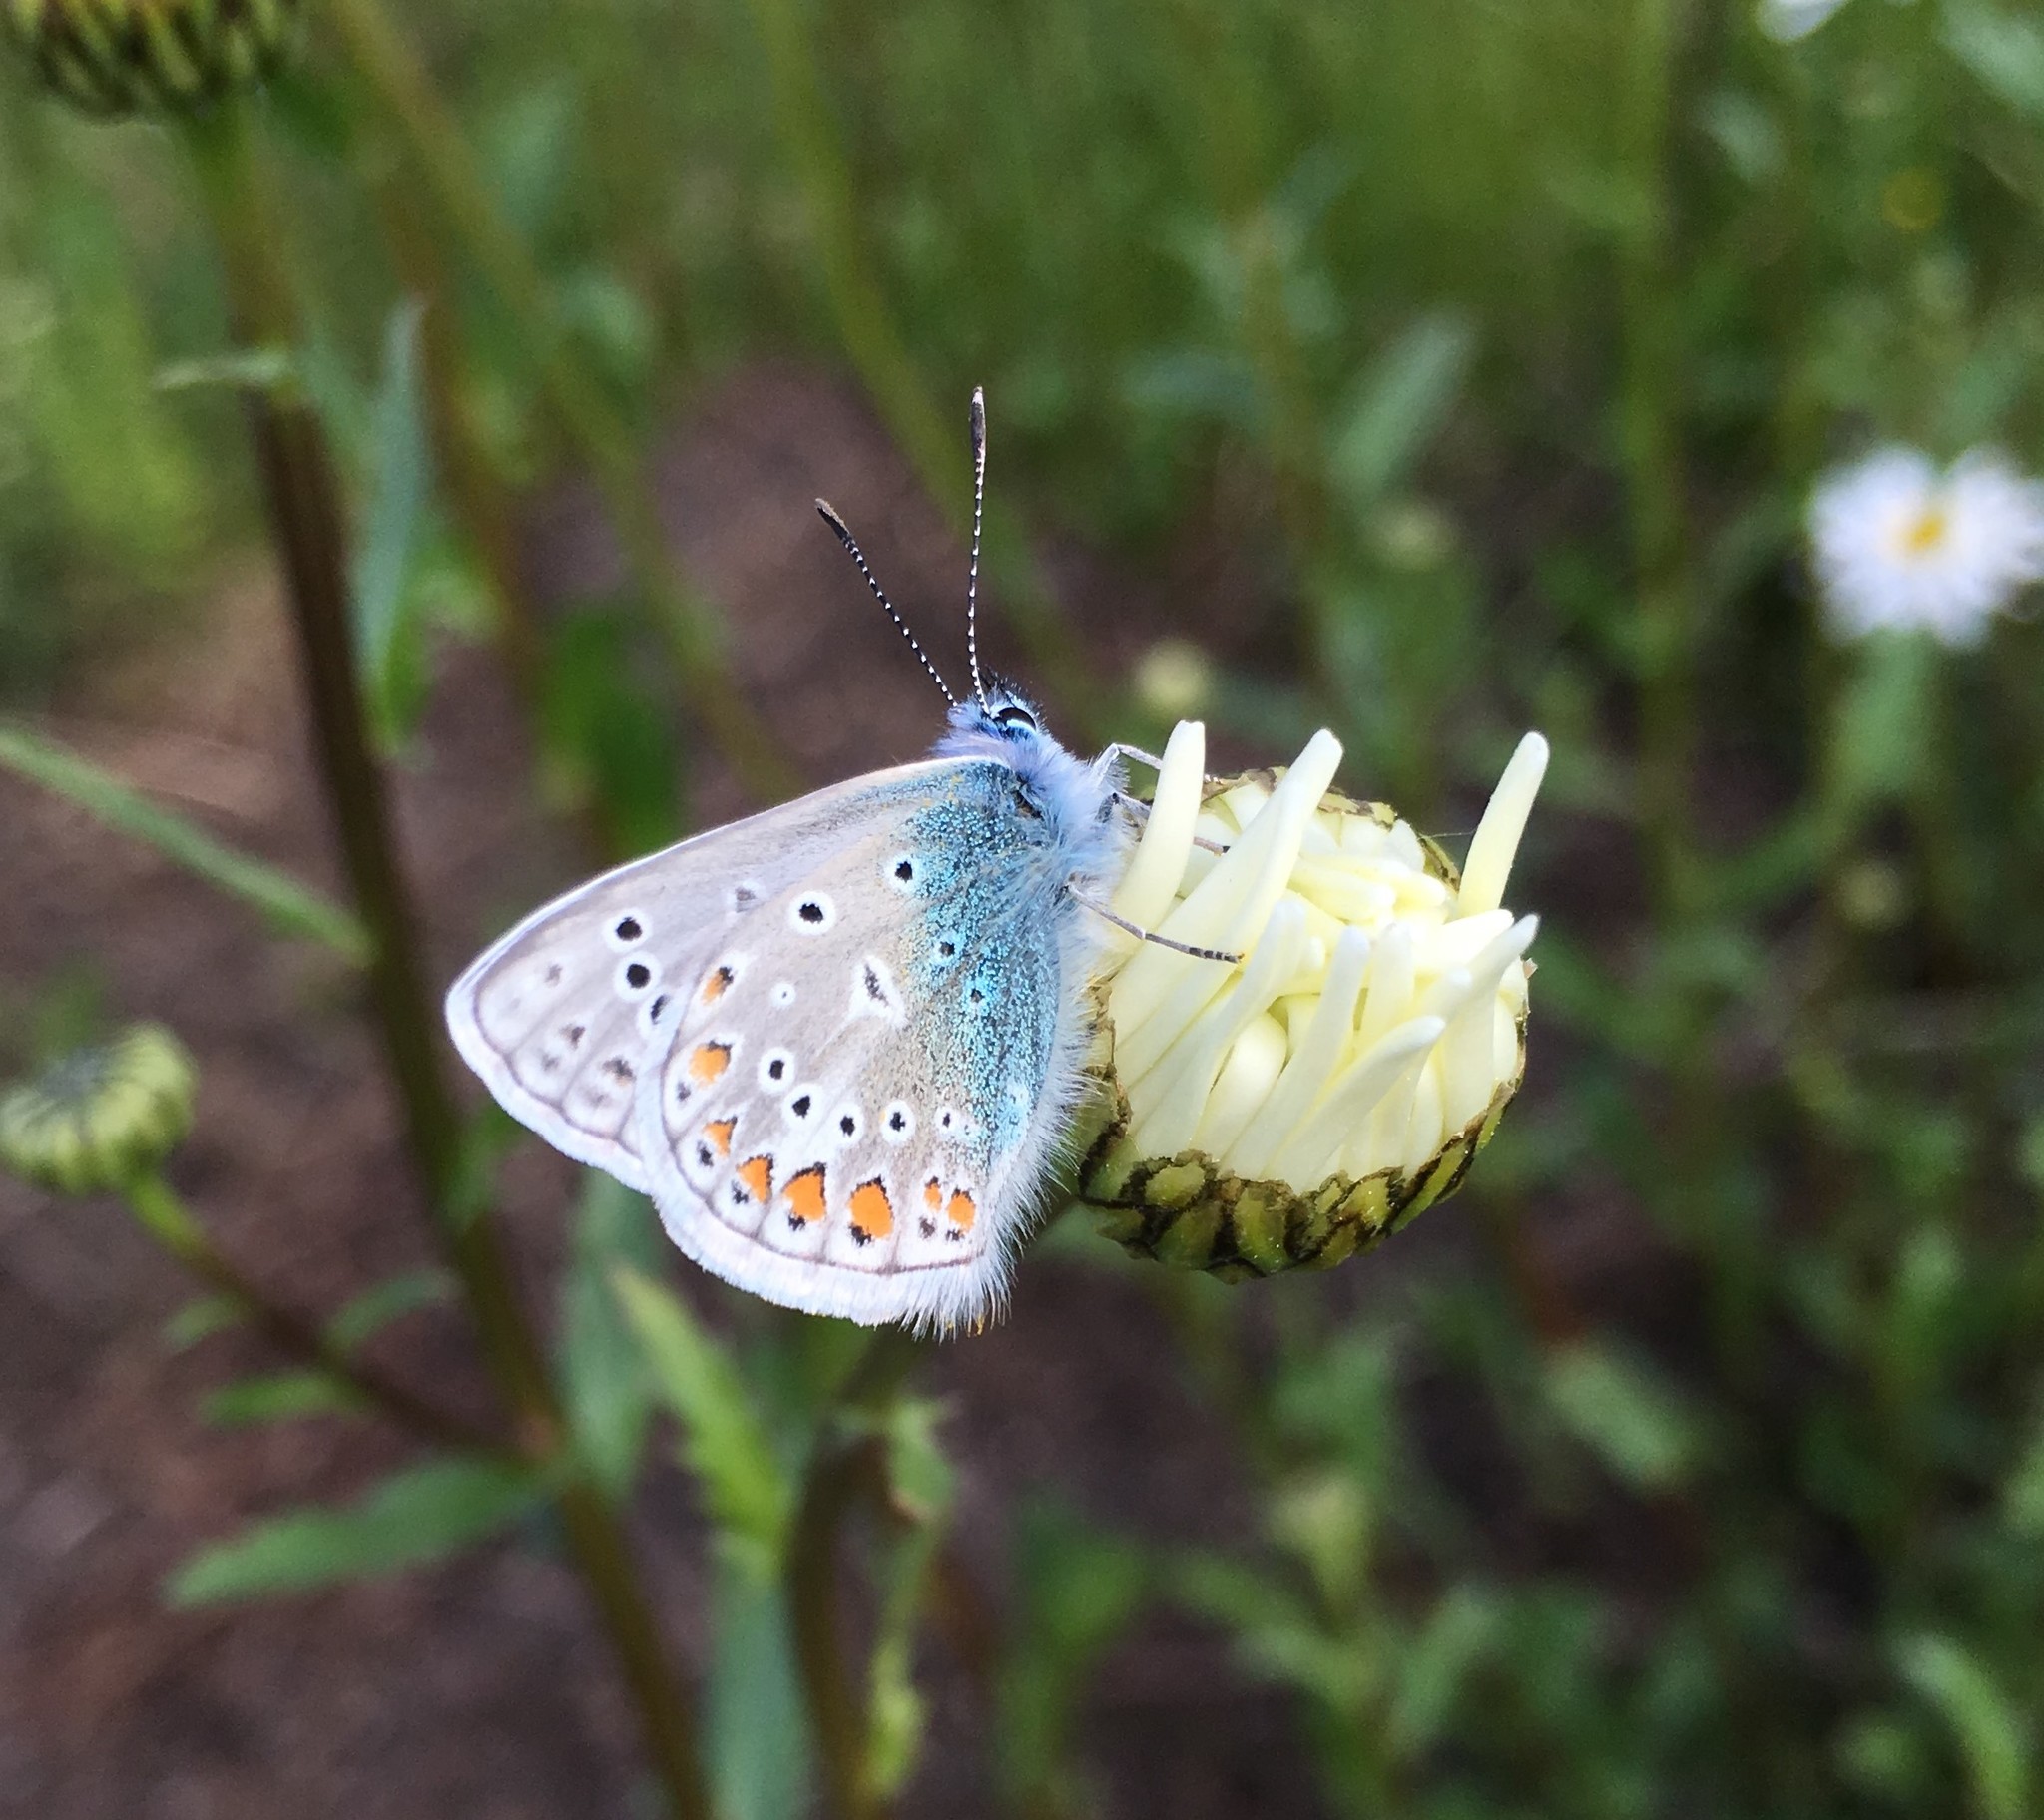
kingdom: Animalia
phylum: Arthropoda
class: Insecta
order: Lepidoptera
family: Lycaenidae
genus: Polyommatus
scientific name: Polyommatus icarus
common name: Common blue
